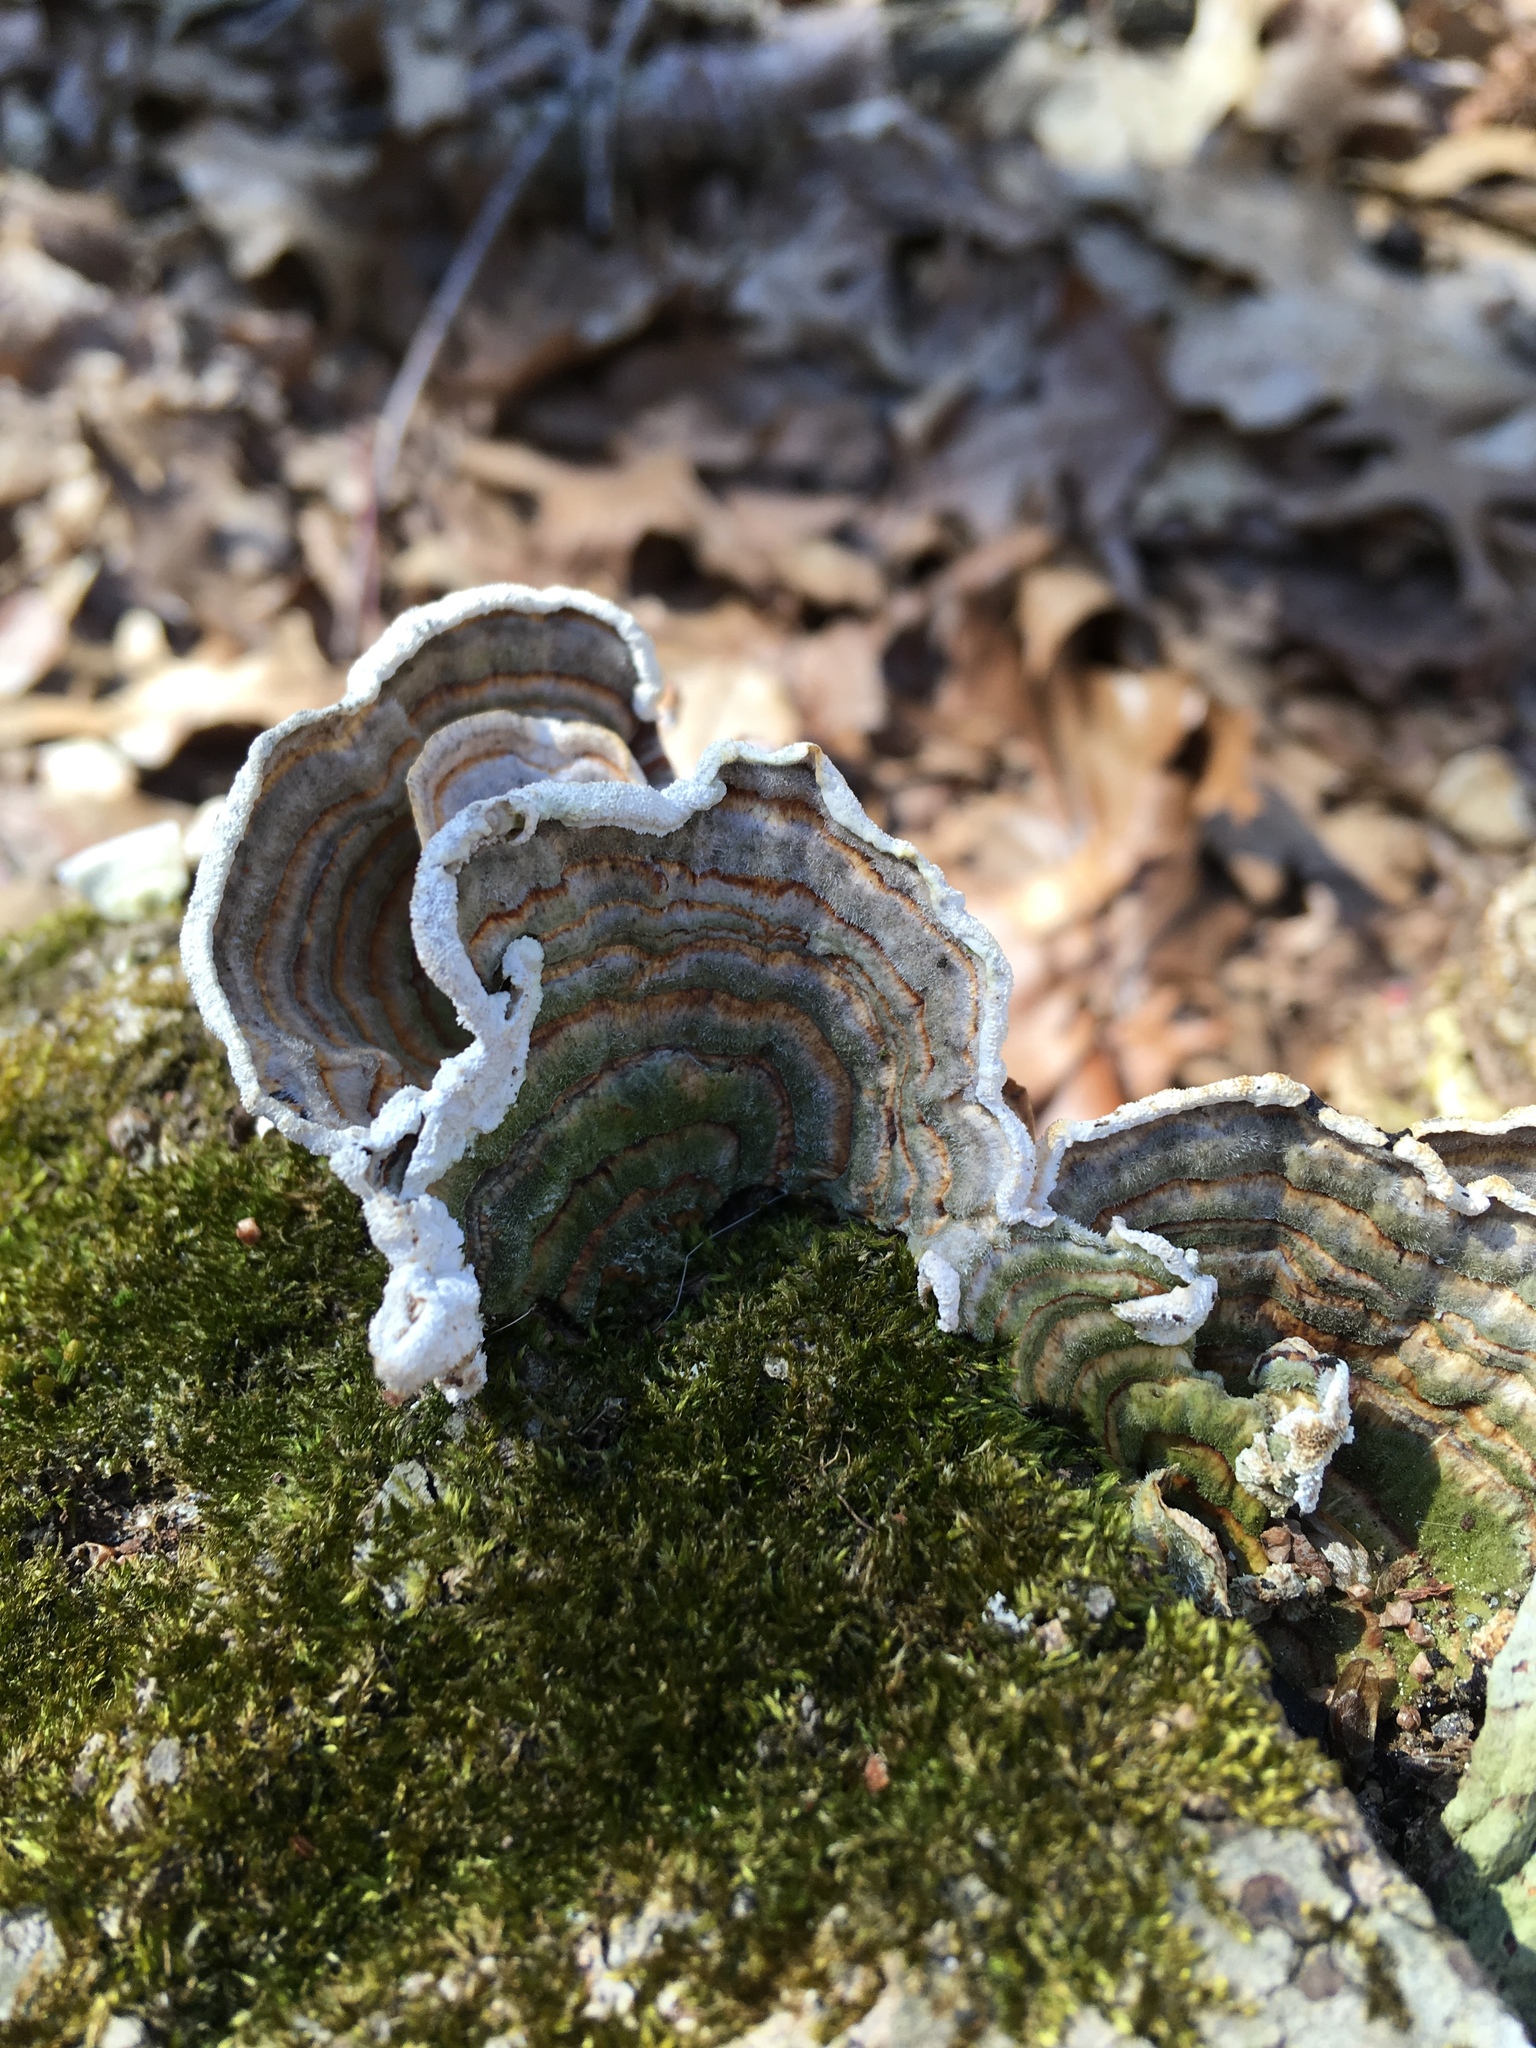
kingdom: Fungi
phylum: Basidiomycota
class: Agaricomycetes
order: Polyporales
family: Polyporaceae
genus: Trametes
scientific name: Trametes versicolor
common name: Turkeytail
